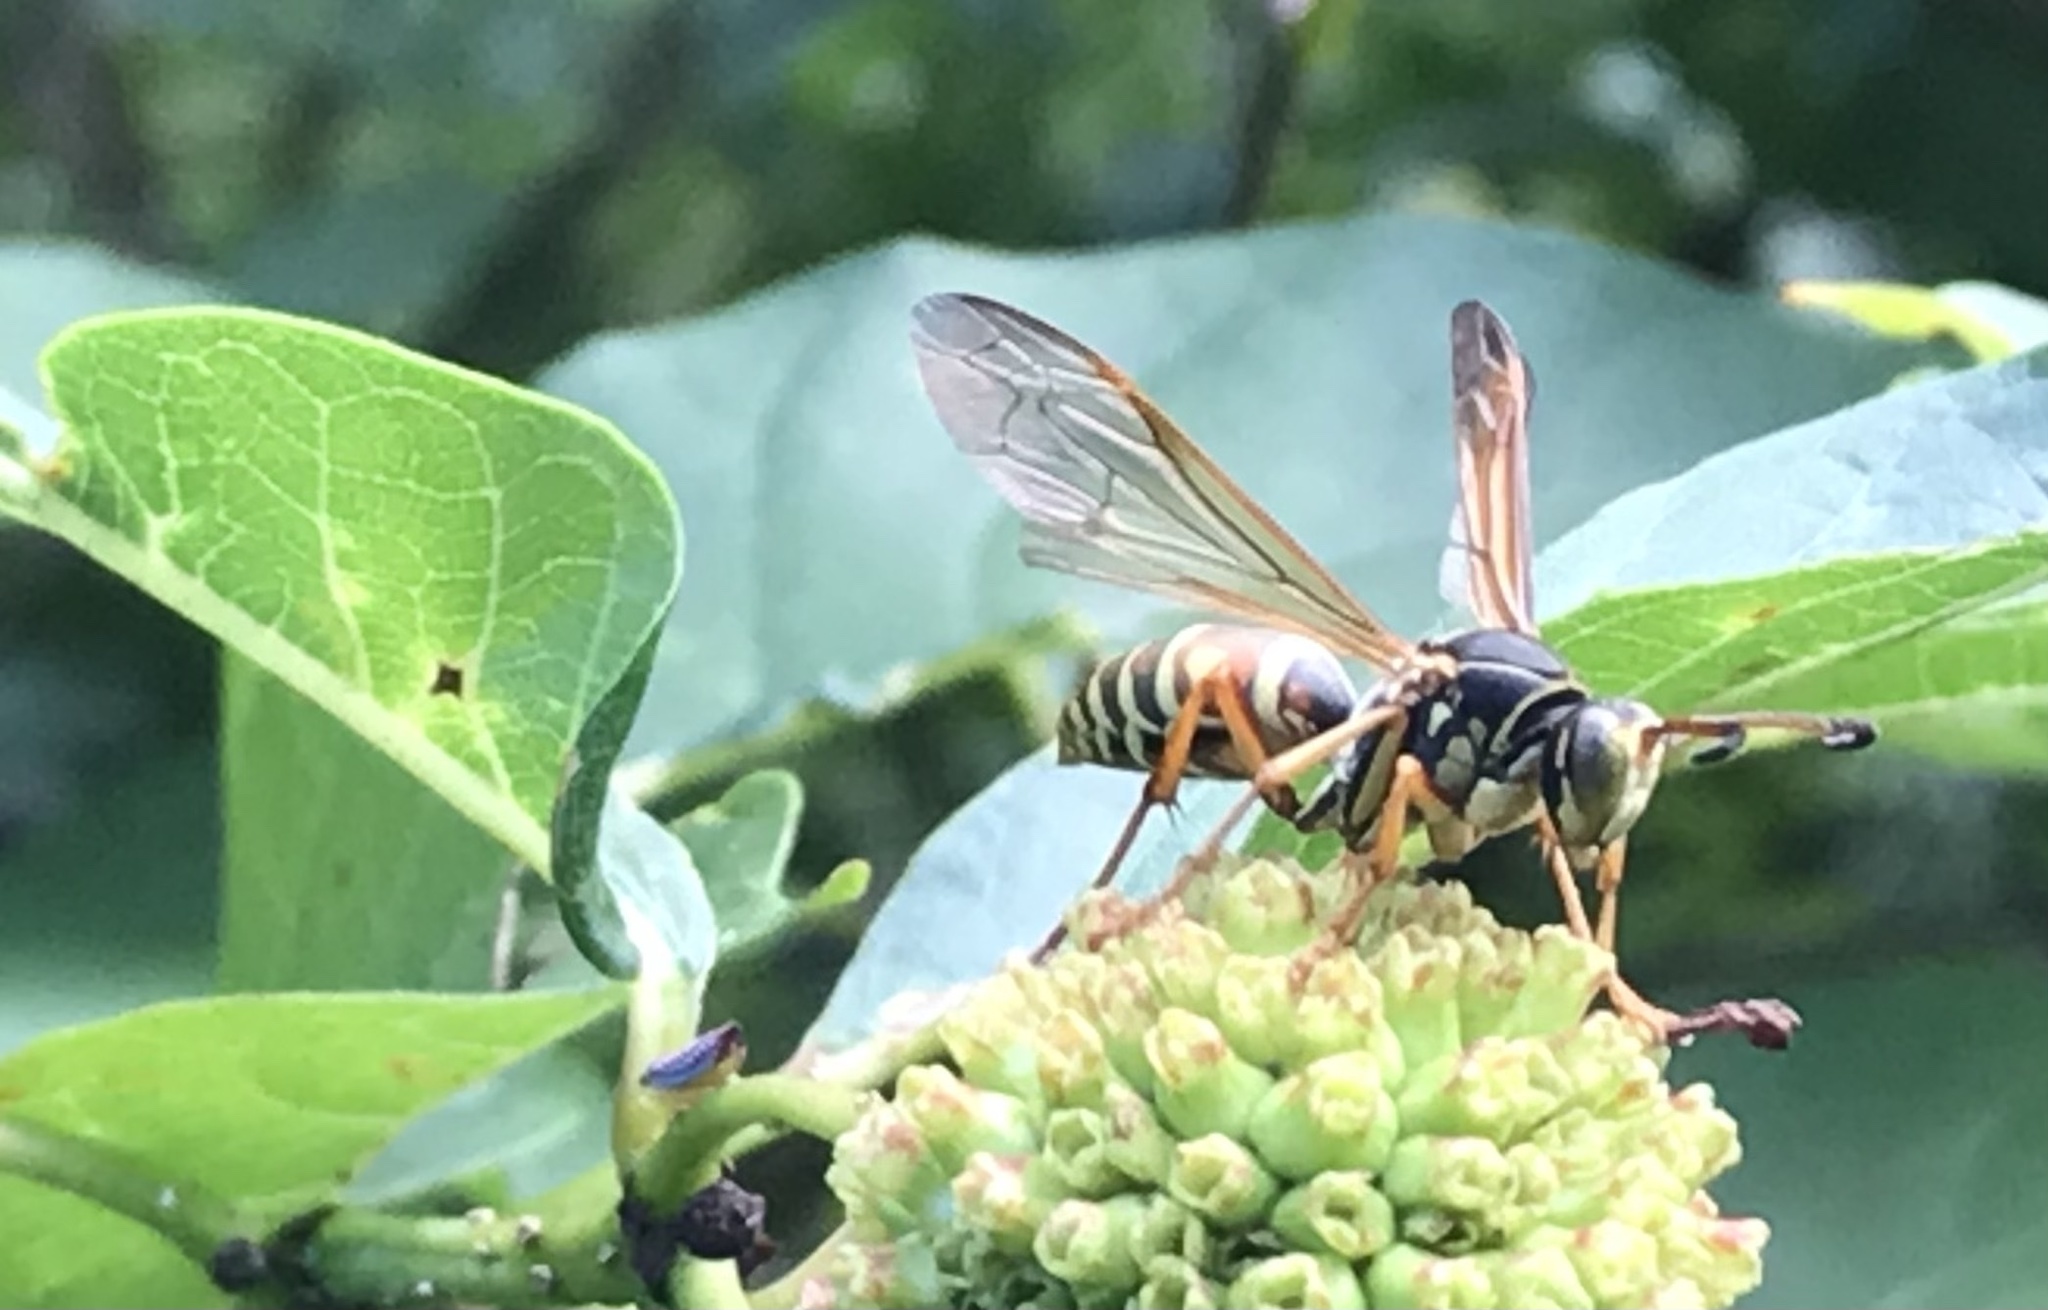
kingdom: Animalia
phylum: Arthropoda
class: Insecta
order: Hymenoptera
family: Eumenidae
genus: Polistes
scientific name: Polistes fuscatus
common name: Dark paper wasp
